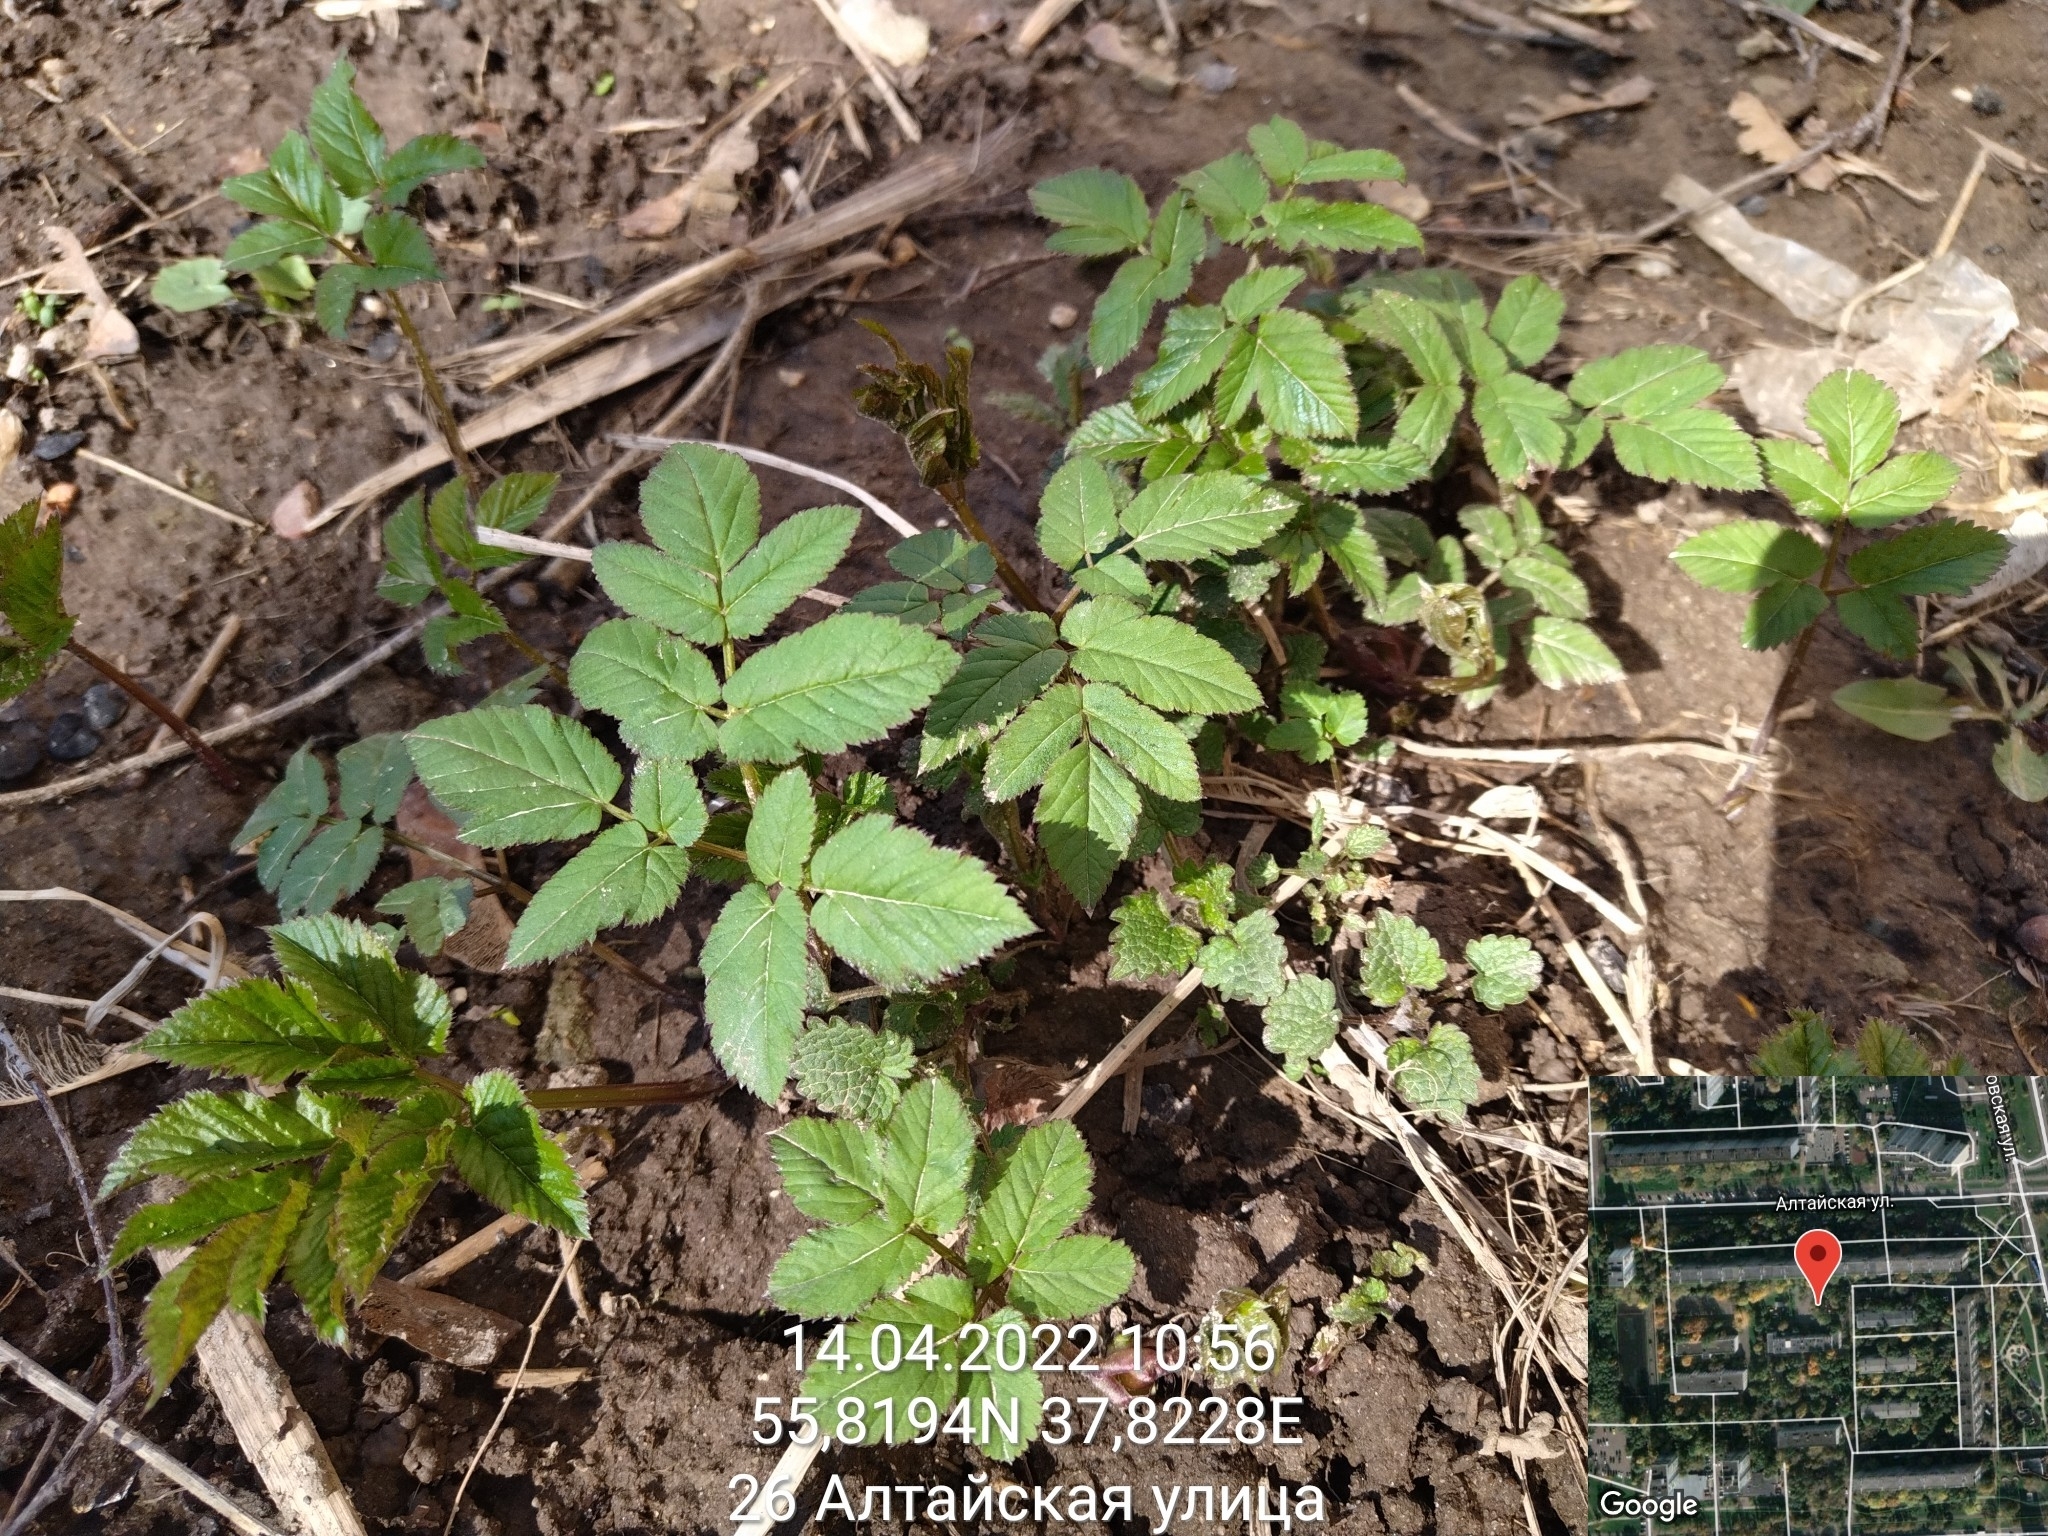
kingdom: Plantae
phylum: Tracheophyta
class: Magnoliopsida
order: Apiales
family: Apiaceae
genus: Aegopodium
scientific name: Aegopodium podagraria
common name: Ground-elder
